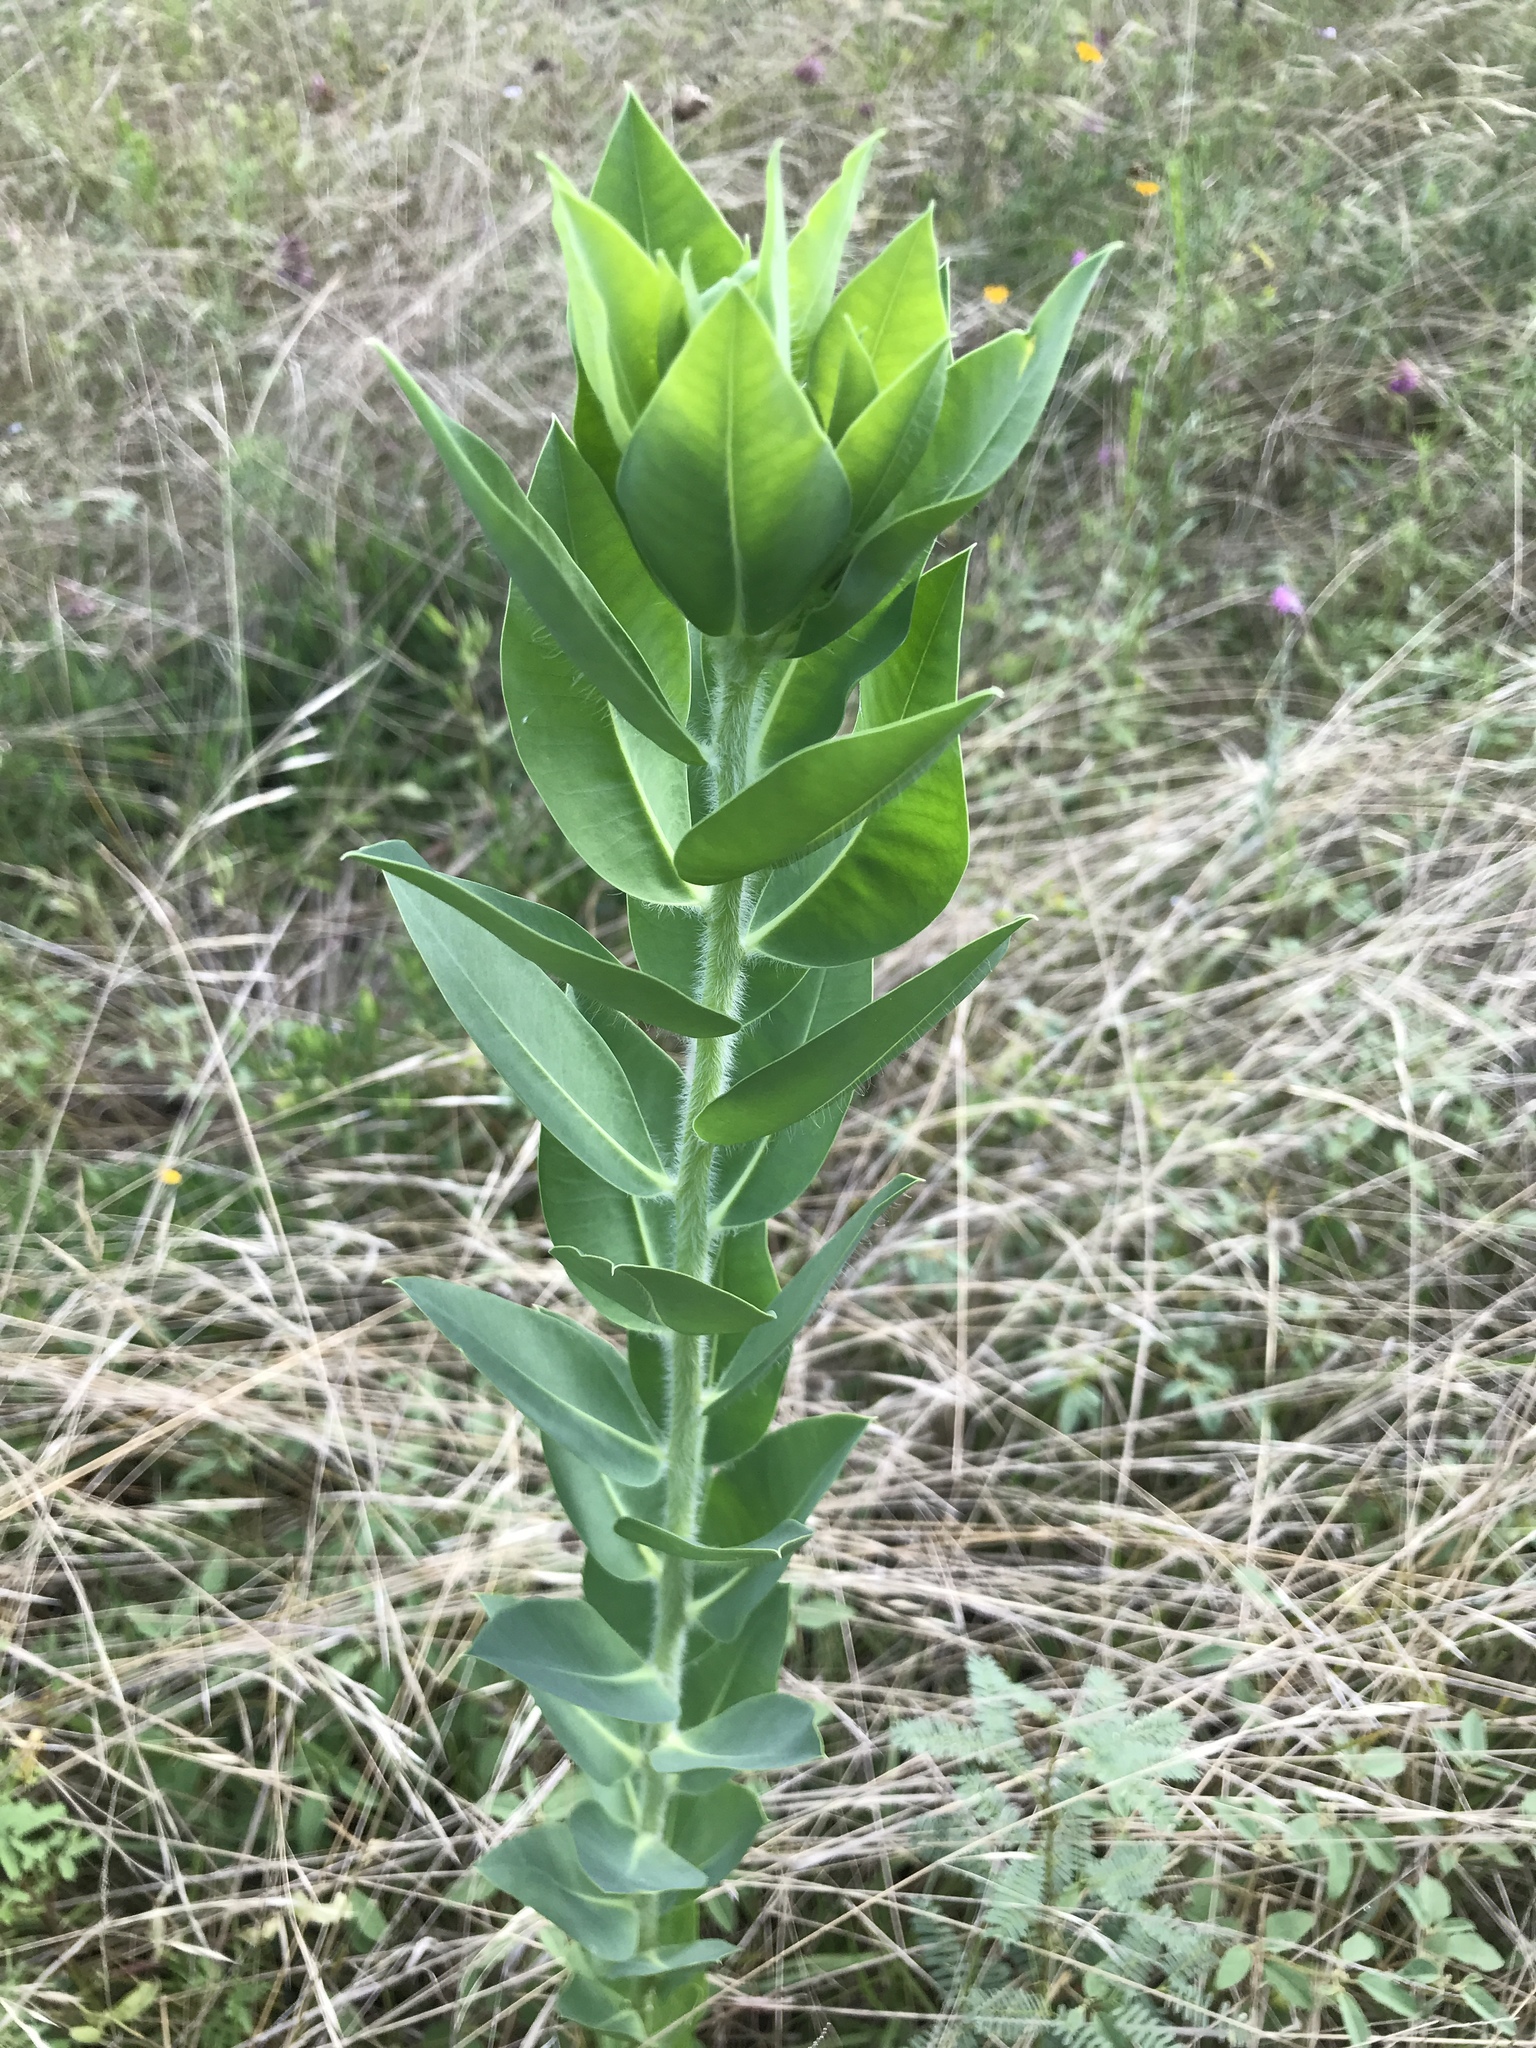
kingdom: Plantae
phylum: Tracheophyta
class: Magnoliopsida
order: Malpighiales
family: Euphorbiaceae
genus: Euphorbia
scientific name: Euphorbia marginata
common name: Ghostweed
